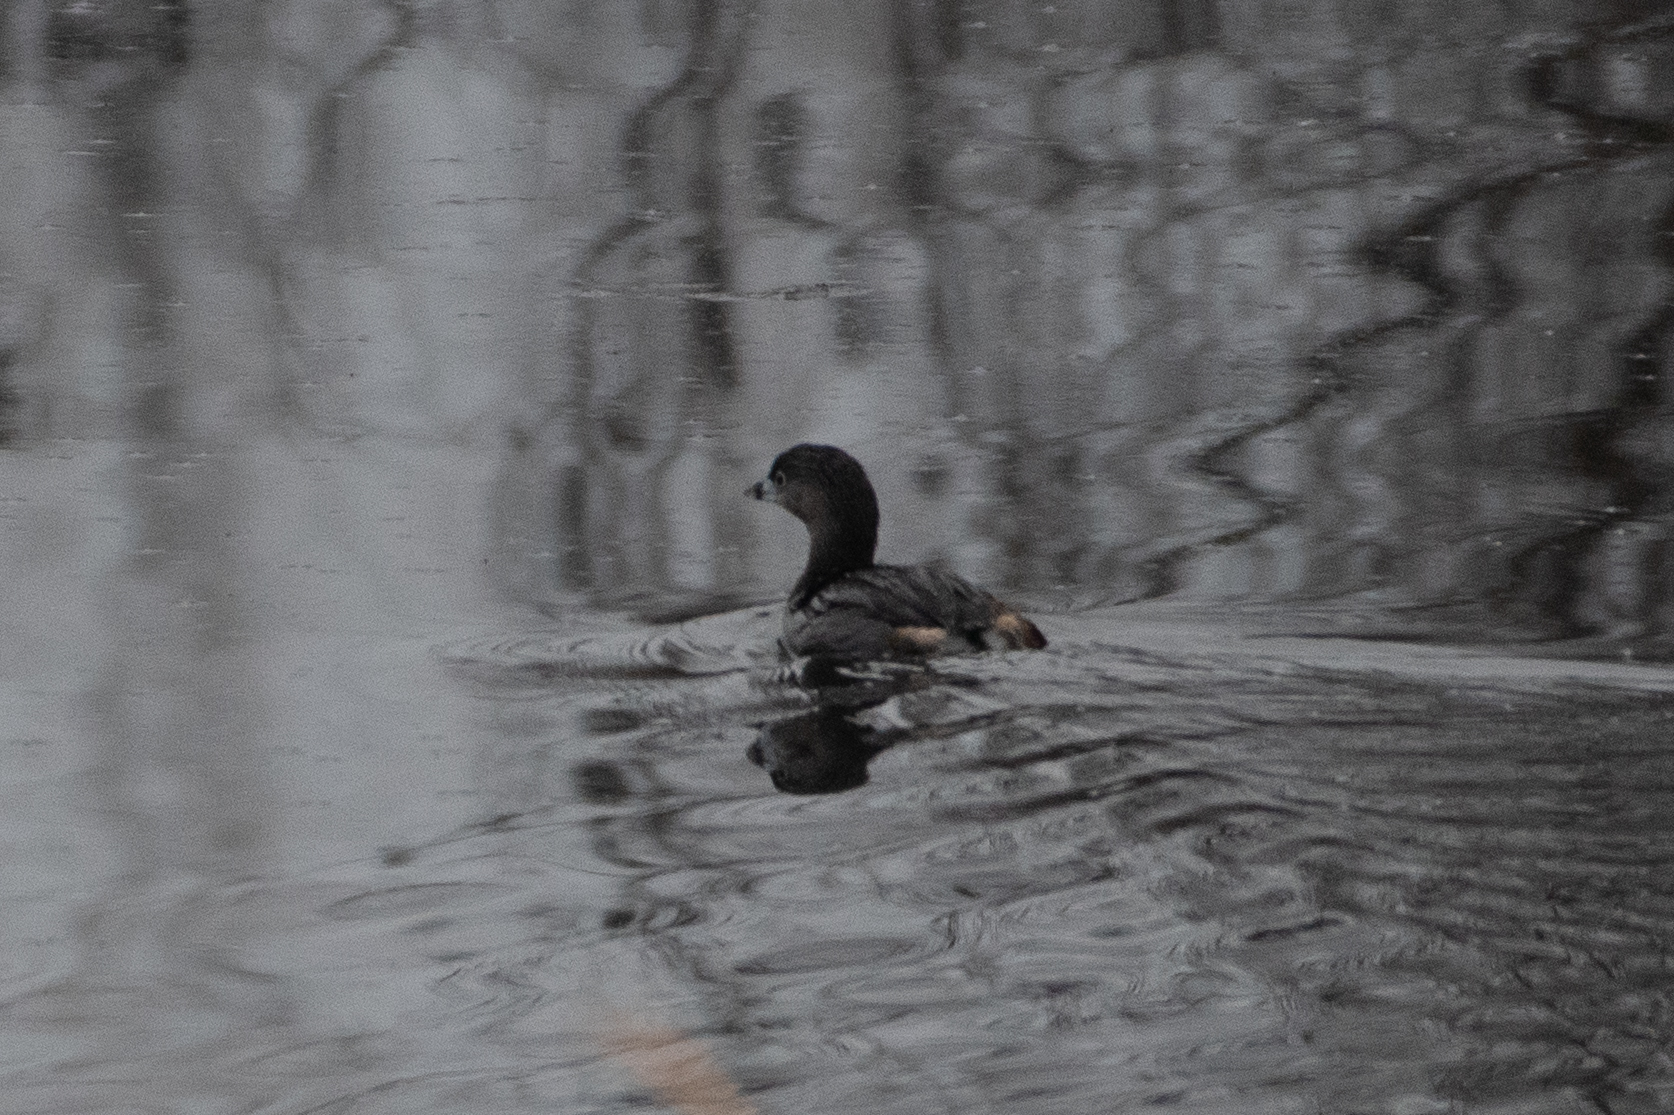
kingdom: Animalia
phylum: Chordata
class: Aves
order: Podicipediformes
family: Podicipedidae
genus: Podilymbus
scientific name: Podilymbus podiceps
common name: Pied-billed grebe
